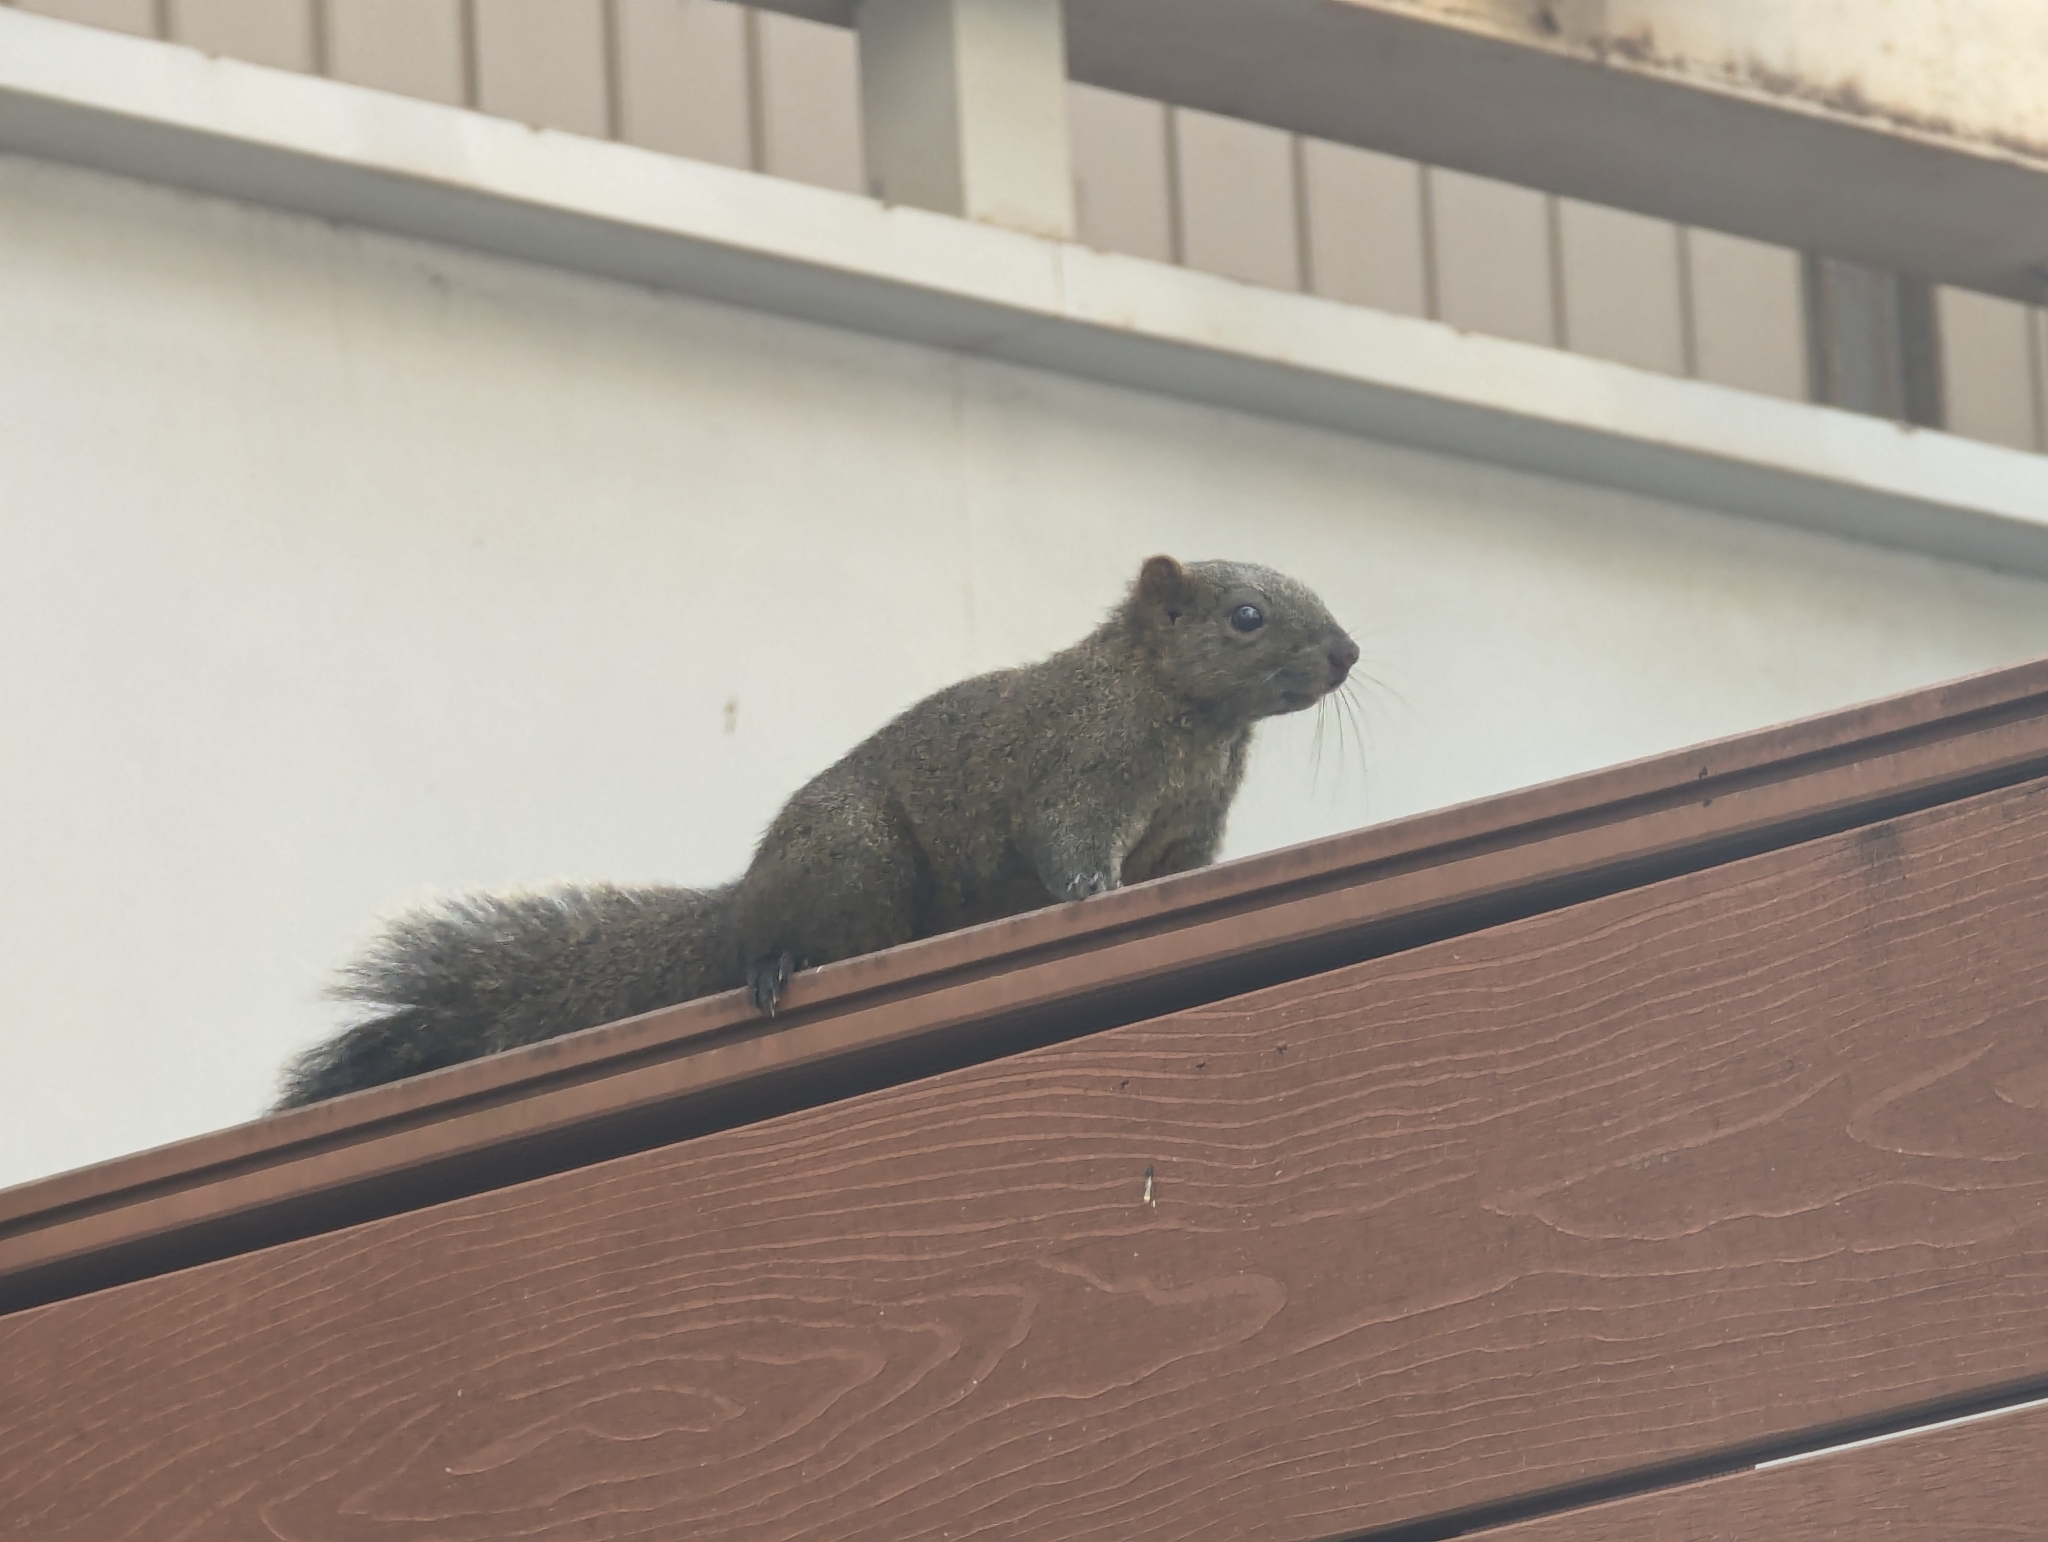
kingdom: Animalia
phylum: Chordata
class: Mammalia
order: Rodentia
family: Sciuridae
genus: Callosciurus
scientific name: Callosciurus erythraeus
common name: Pallas's squirrel
